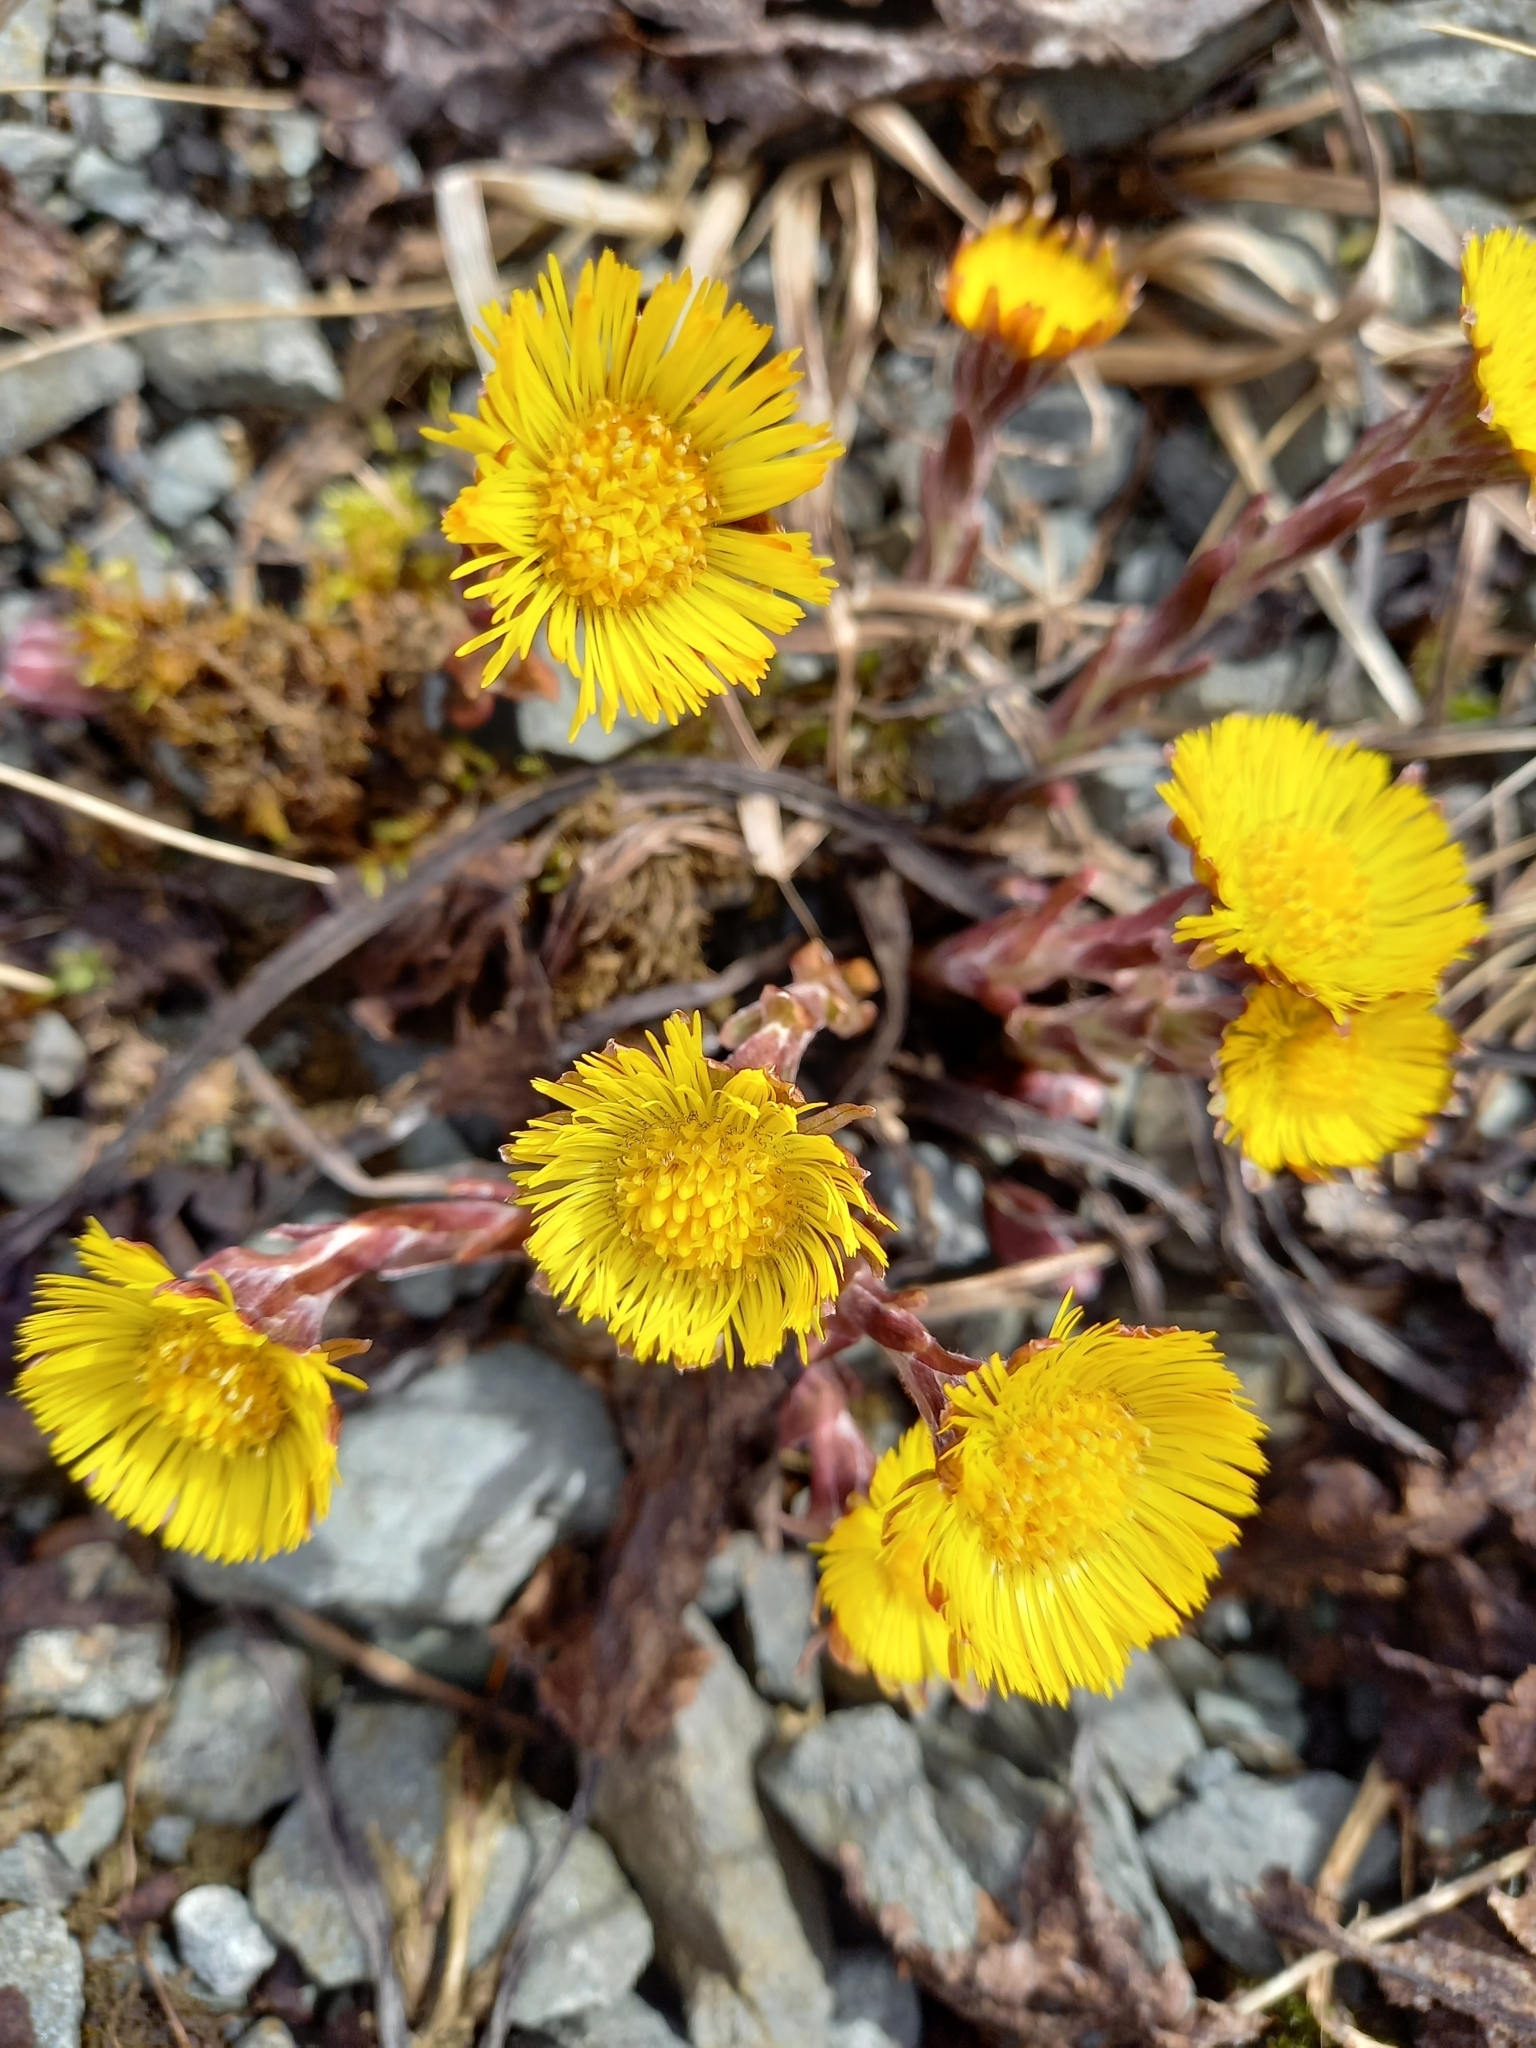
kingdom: Plantae
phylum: Tracheophyta
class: Magnoliopsida
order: Asterales
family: Asteraceae
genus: Tussilago
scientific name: Tussilago farfara
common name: Coltsfoot
